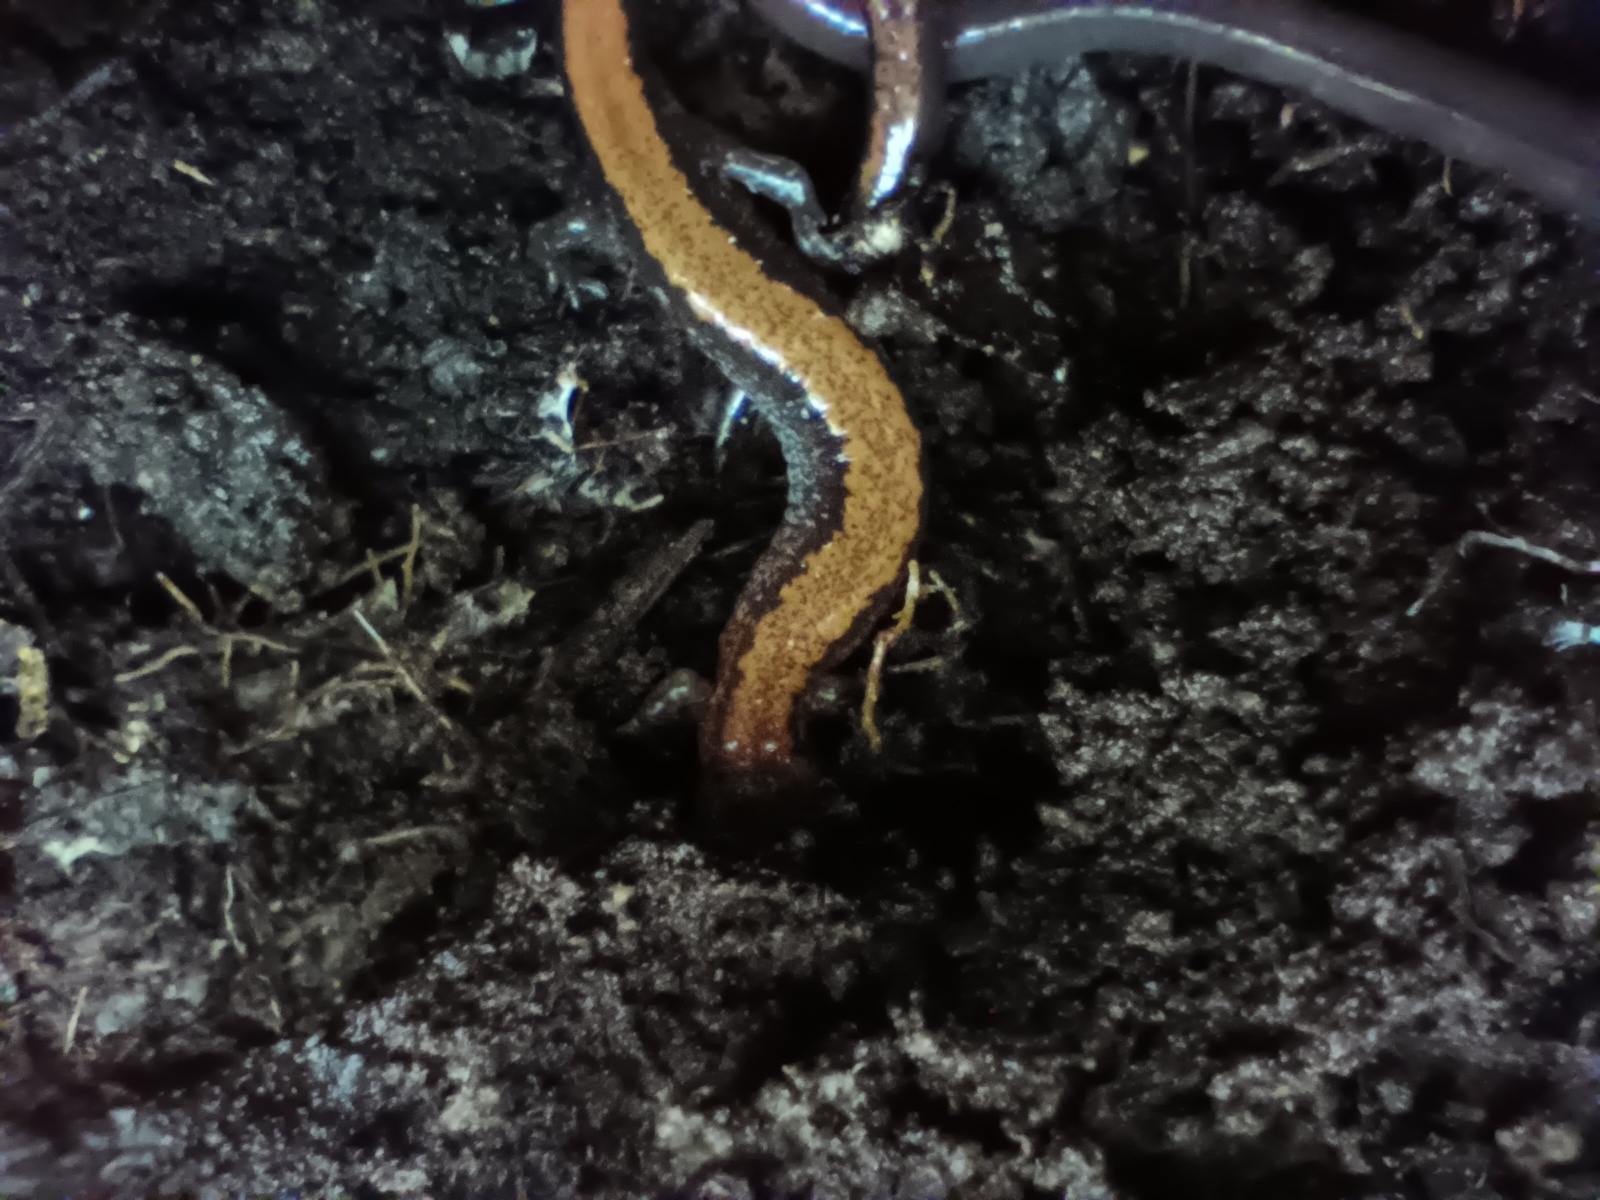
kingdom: Animalia
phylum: Chordata
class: Amphibia
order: Caudata
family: Plethodontidae
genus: Plethodon
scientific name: Plethodon cinereus
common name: Redback salamander
